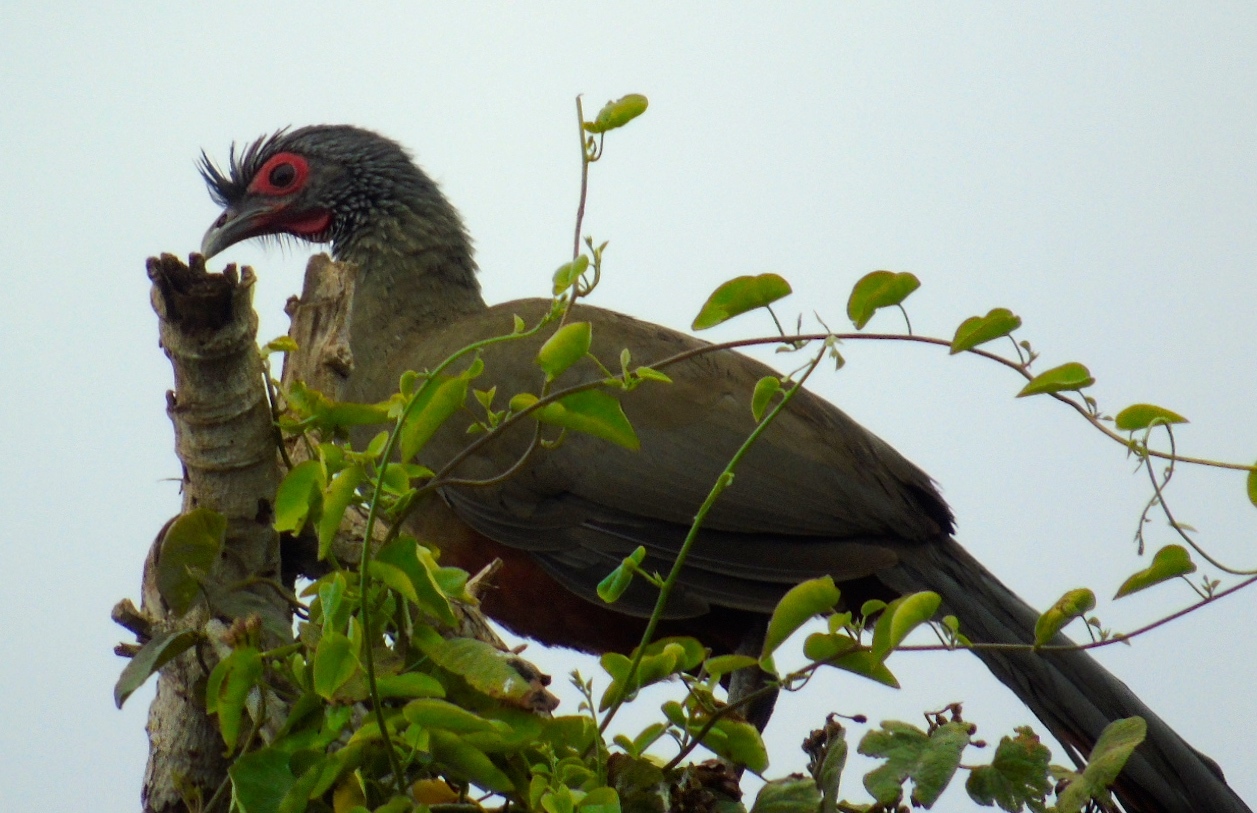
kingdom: Animalia
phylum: Chordata
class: Aves
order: Galliformes
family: Cracidae
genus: Ortalis
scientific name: Ortalis wagleri
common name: Rufous-bellied chachalaca
